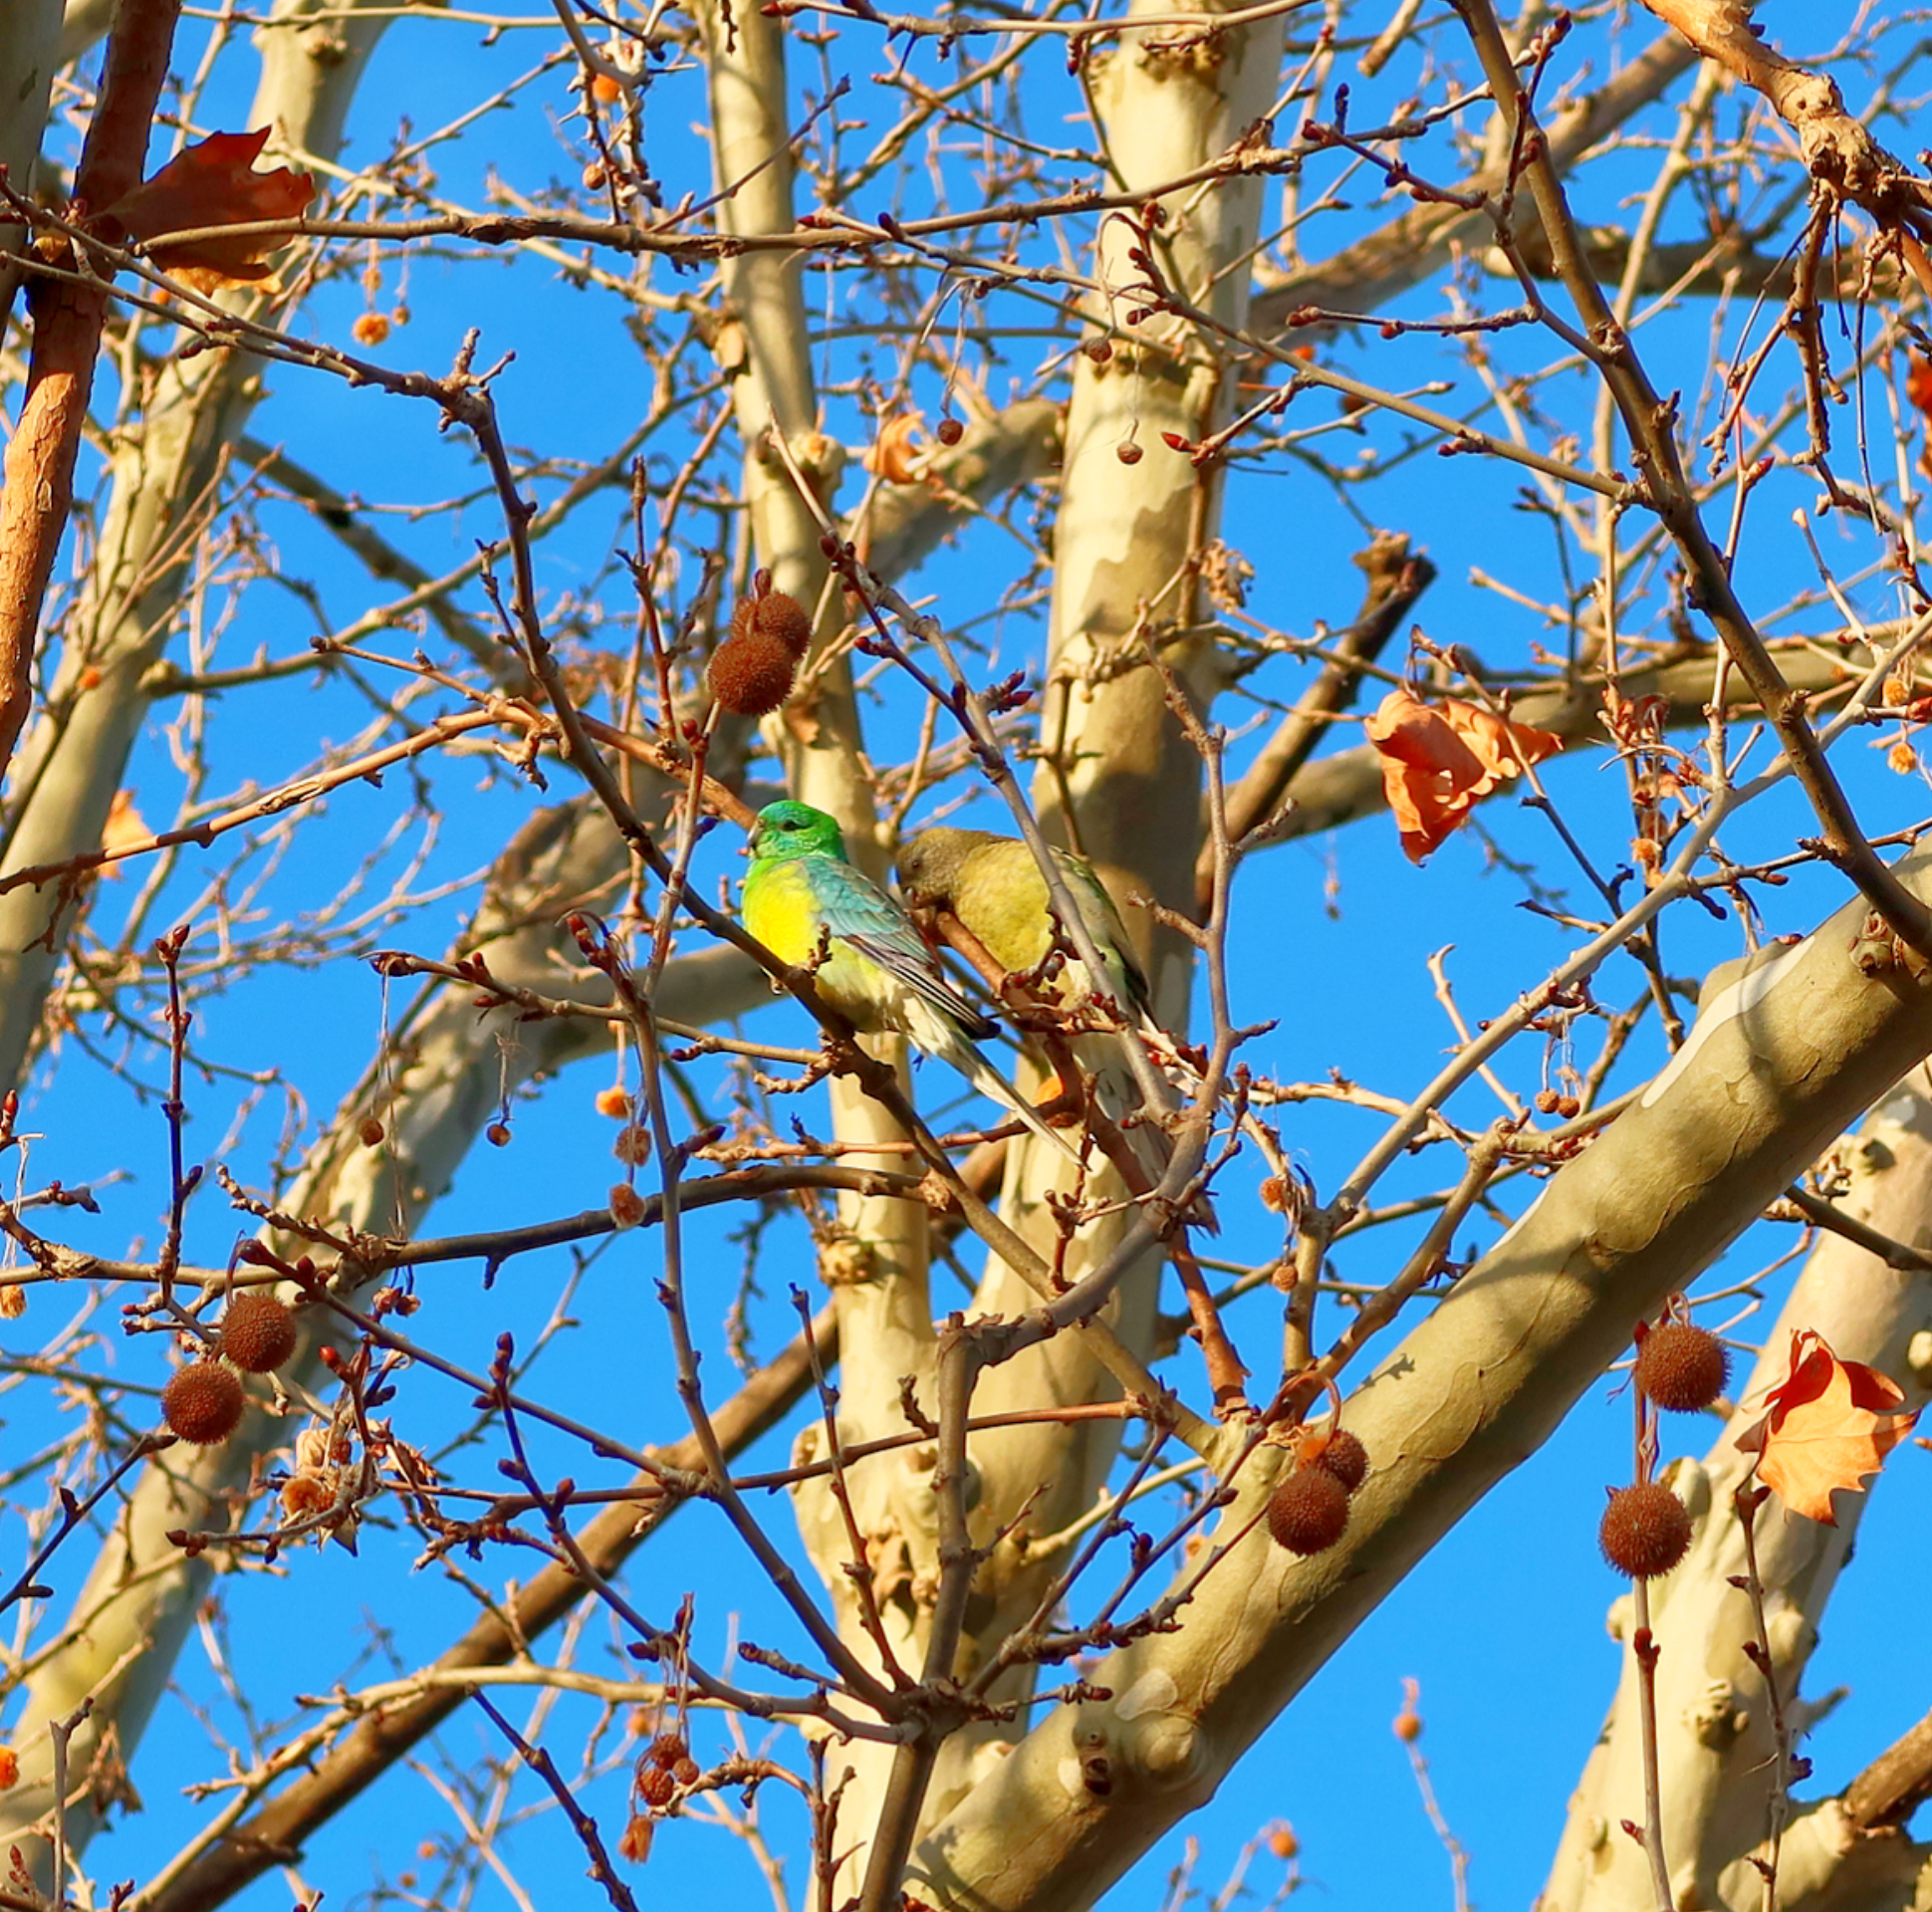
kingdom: Animalia
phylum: Chordata
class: Aves
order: Psittaciformes
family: Psittacidae
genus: Psephotus
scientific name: Psephotus haematonotus
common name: Red-rumped parrot
